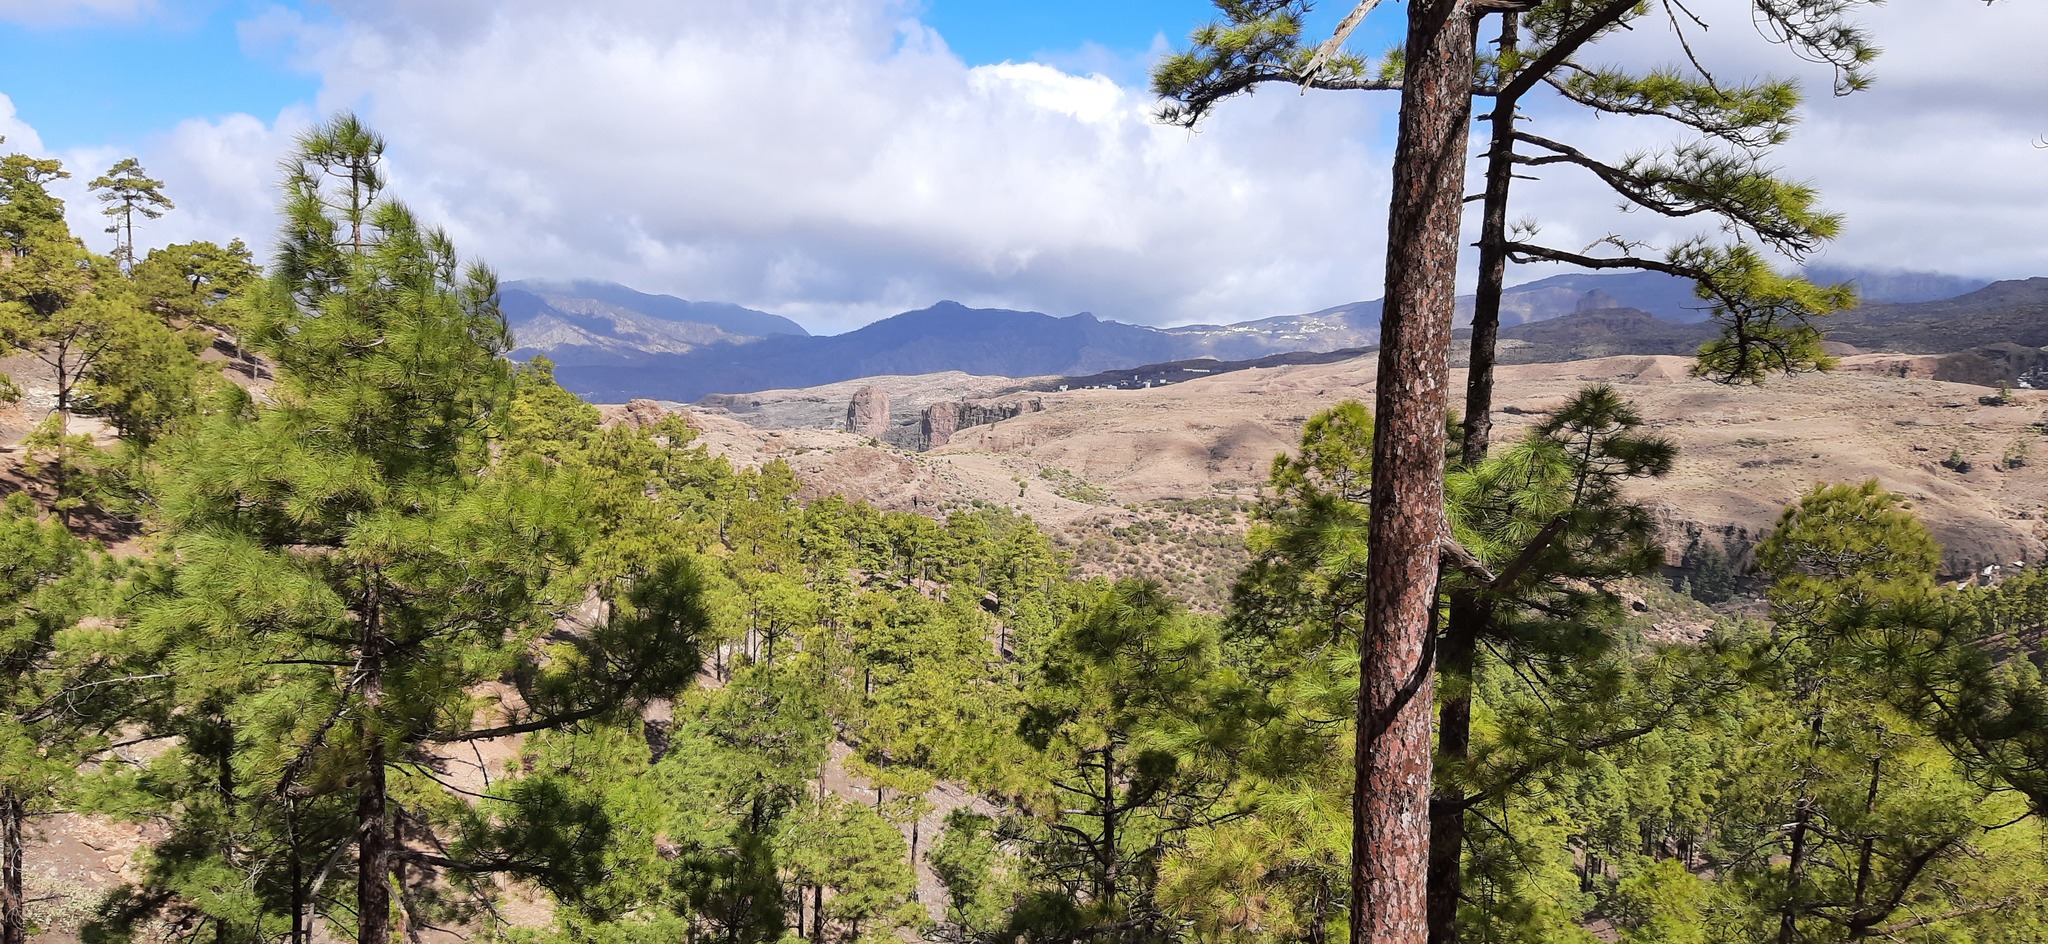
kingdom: Plantae
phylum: Tracheophyta
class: Pinopsida
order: Pinales
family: Pinaceae
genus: Pinus
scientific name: Pinus canariensis
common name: Canary islands pine
